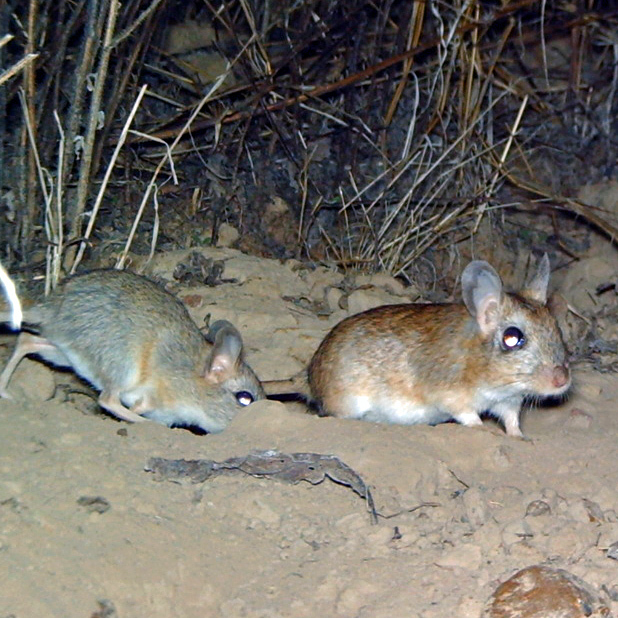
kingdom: Animalia
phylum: Chordata
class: Mammalia
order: Rodentia
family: Muridae
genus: Gerbilliscus
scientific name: Gerbilliscus afer
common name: Cape gerbil
